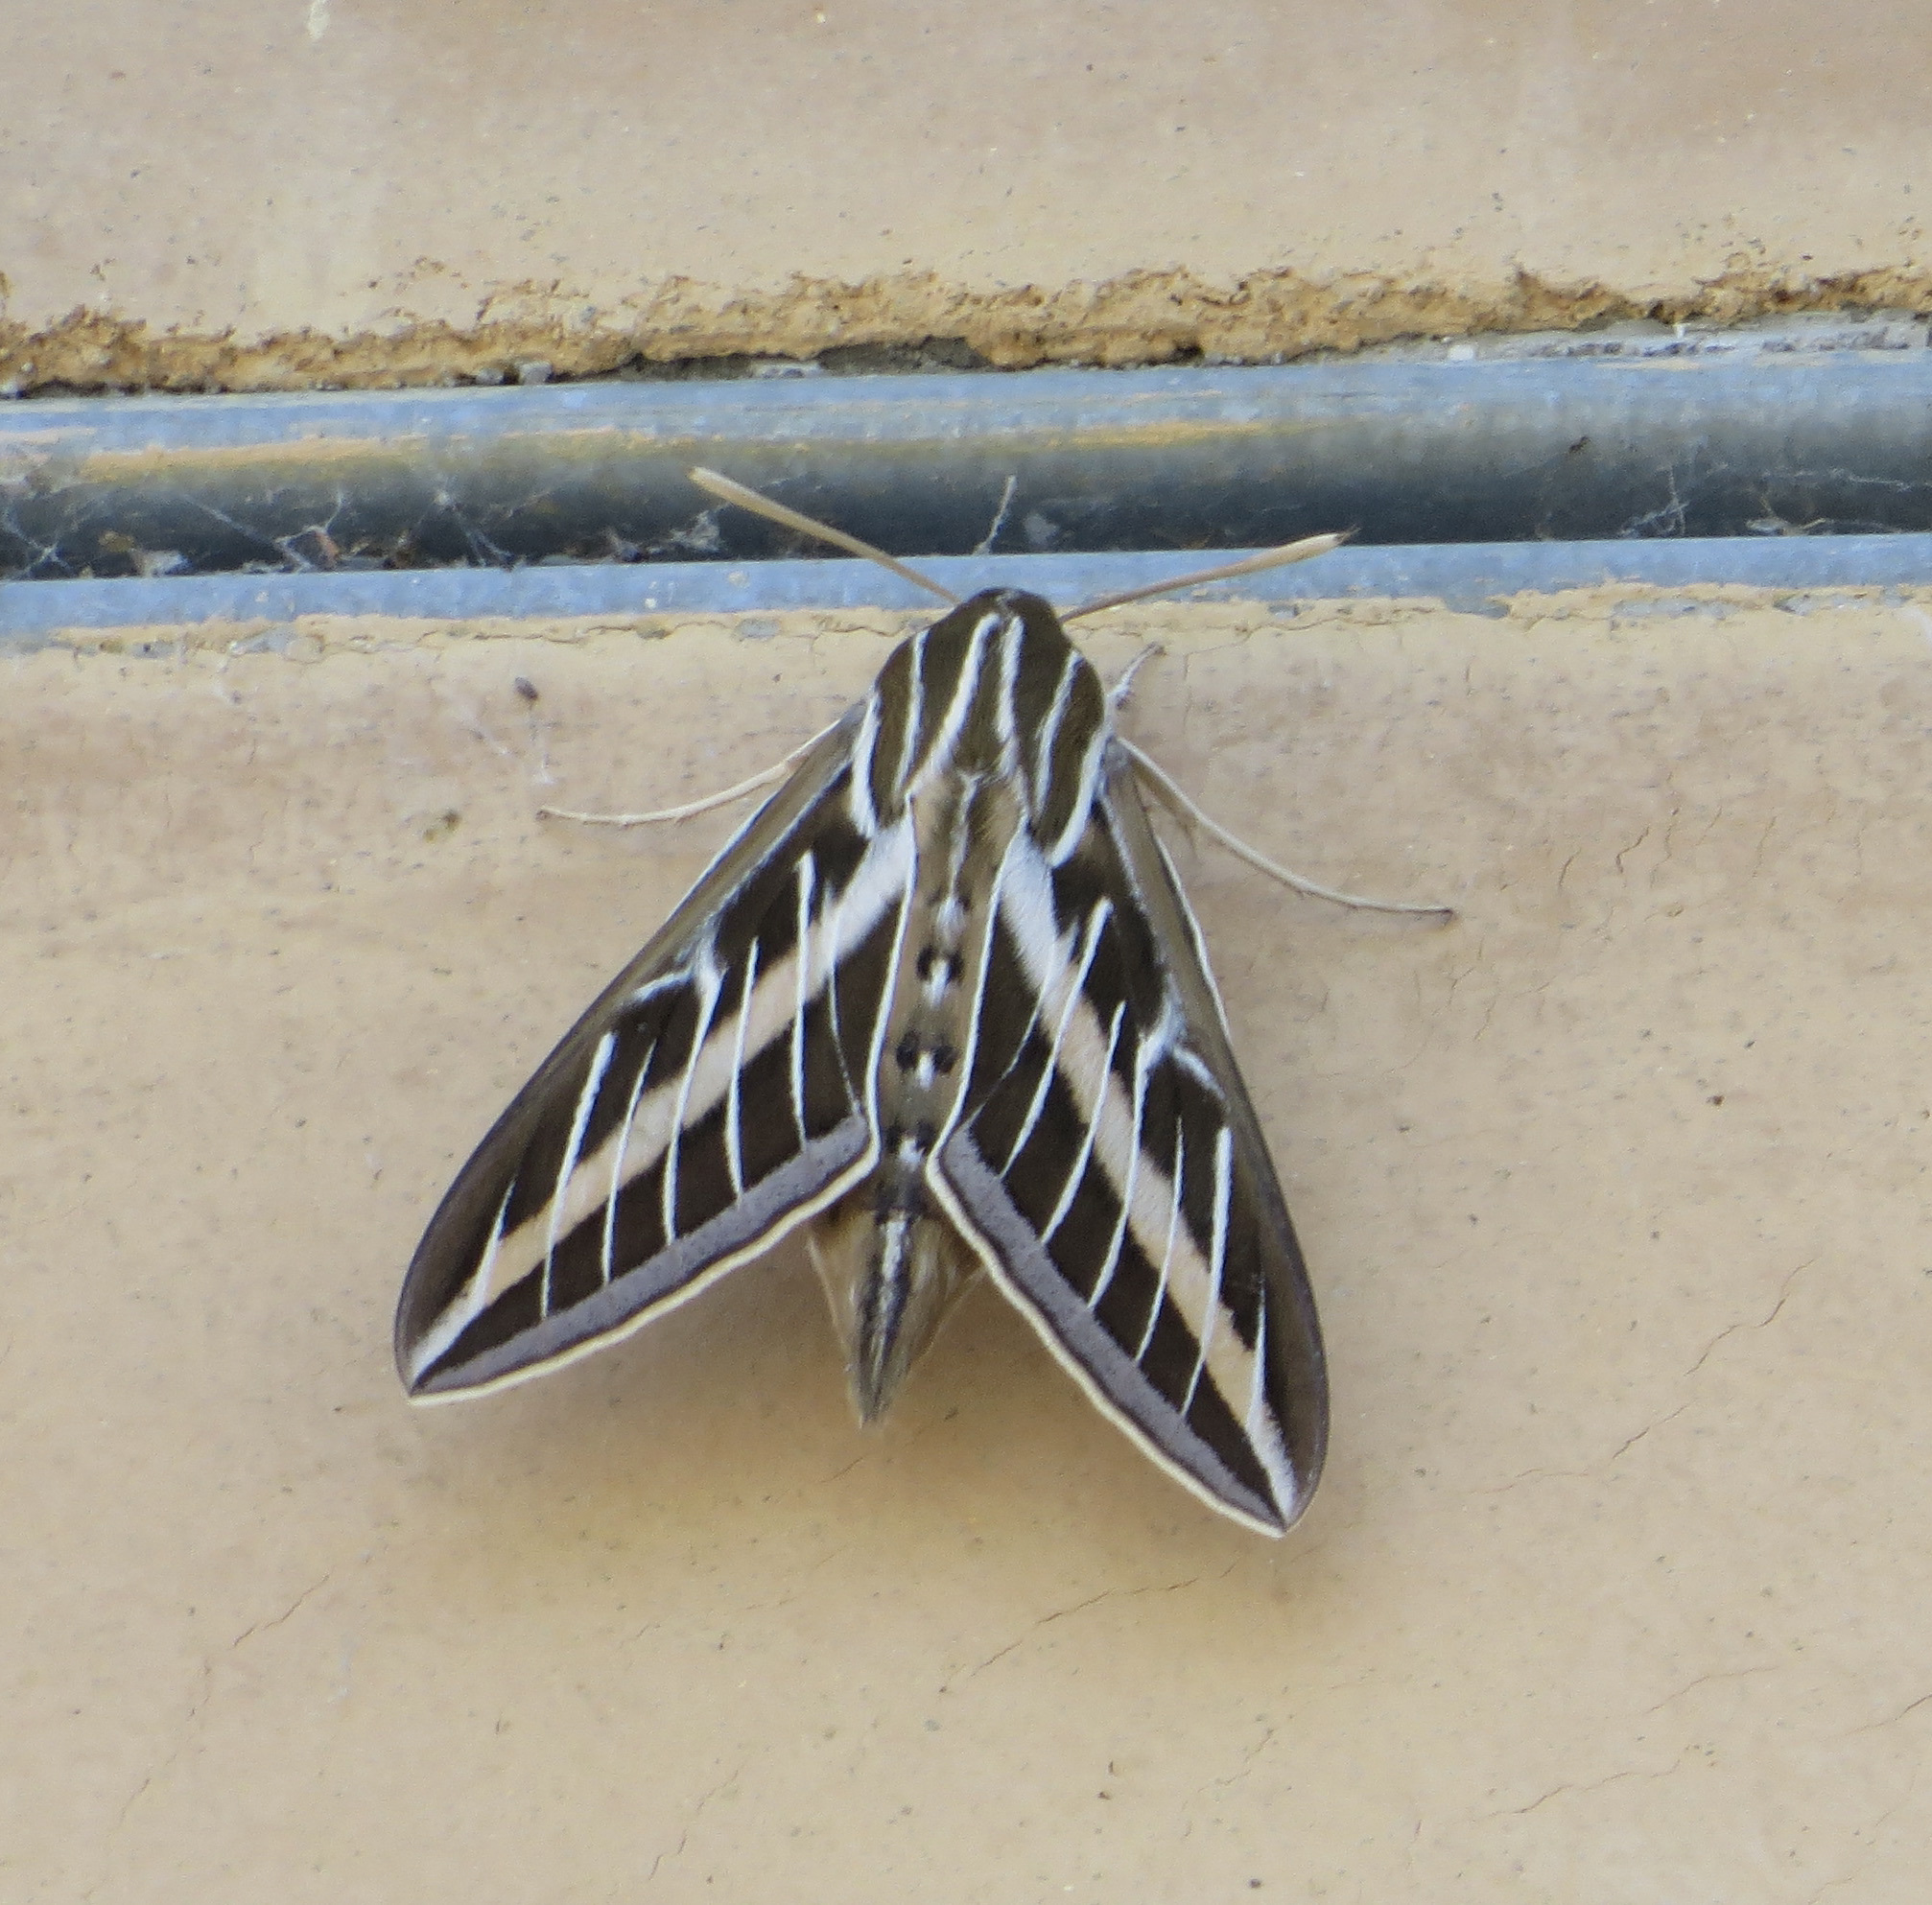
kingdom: Animalia
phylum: Arthropoda
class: Insecta
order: Lepidoptera
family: Sphingidae
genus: Hyles
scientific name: Hyles lineata
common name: White-lined sphinx
